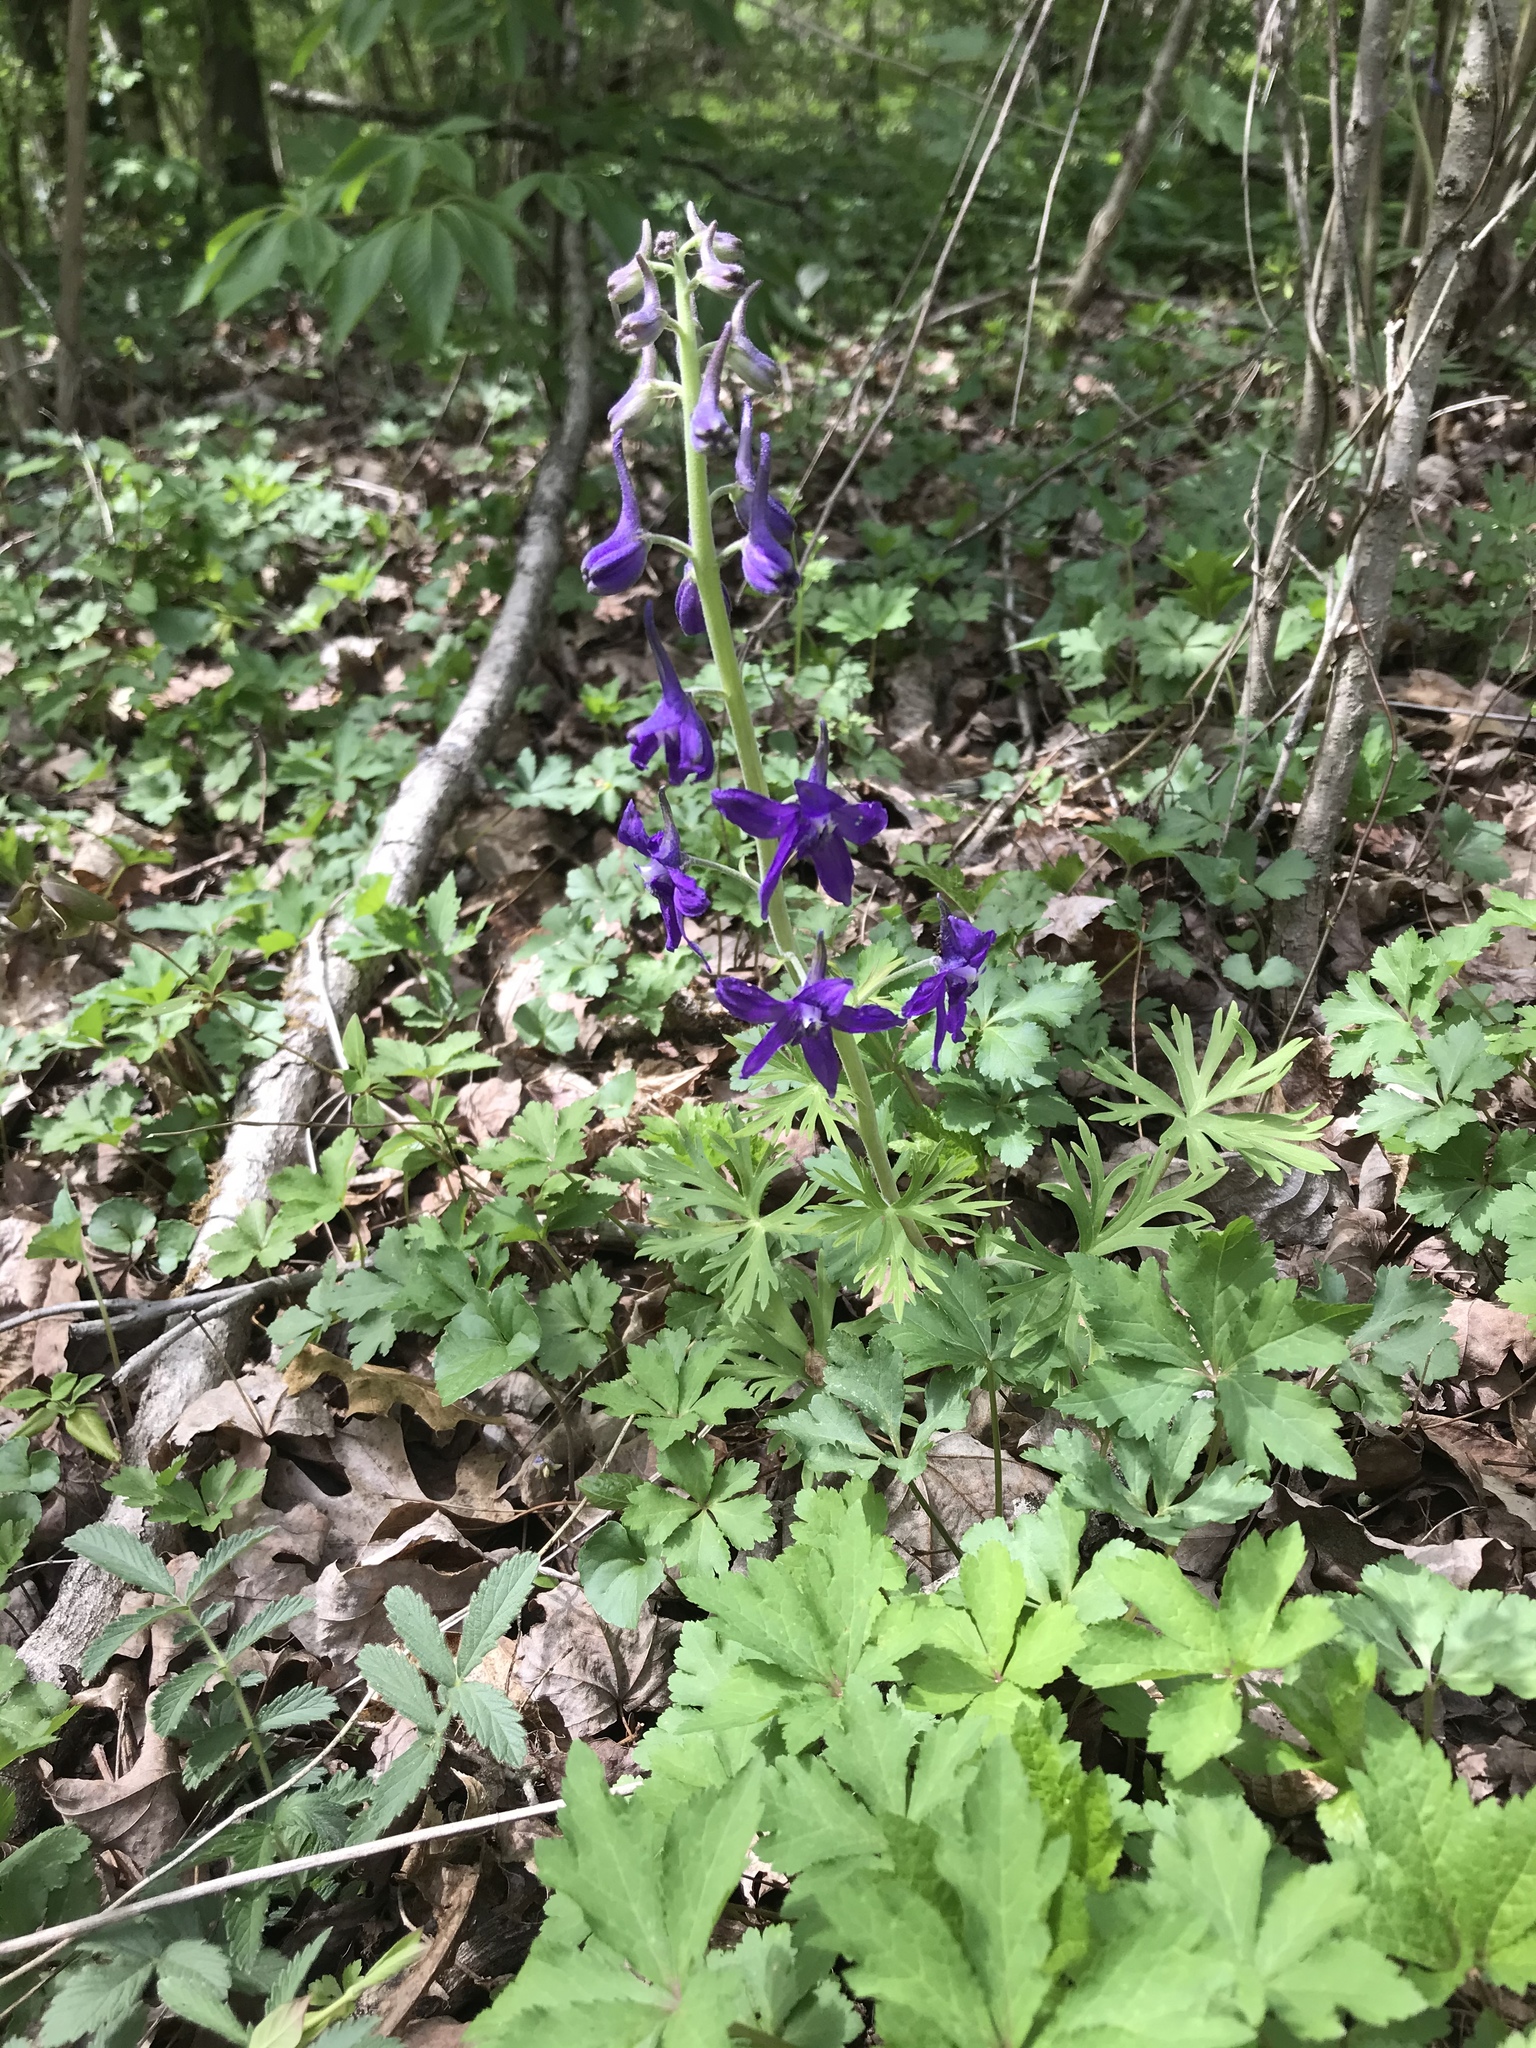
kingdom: Plantae
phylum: Tracheophyta
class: Magnoliopsida
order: Ranunculales
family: Ranunculaceae
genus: Delphinium
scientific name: Delphinium tricorne
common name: Dwarf larkspur
